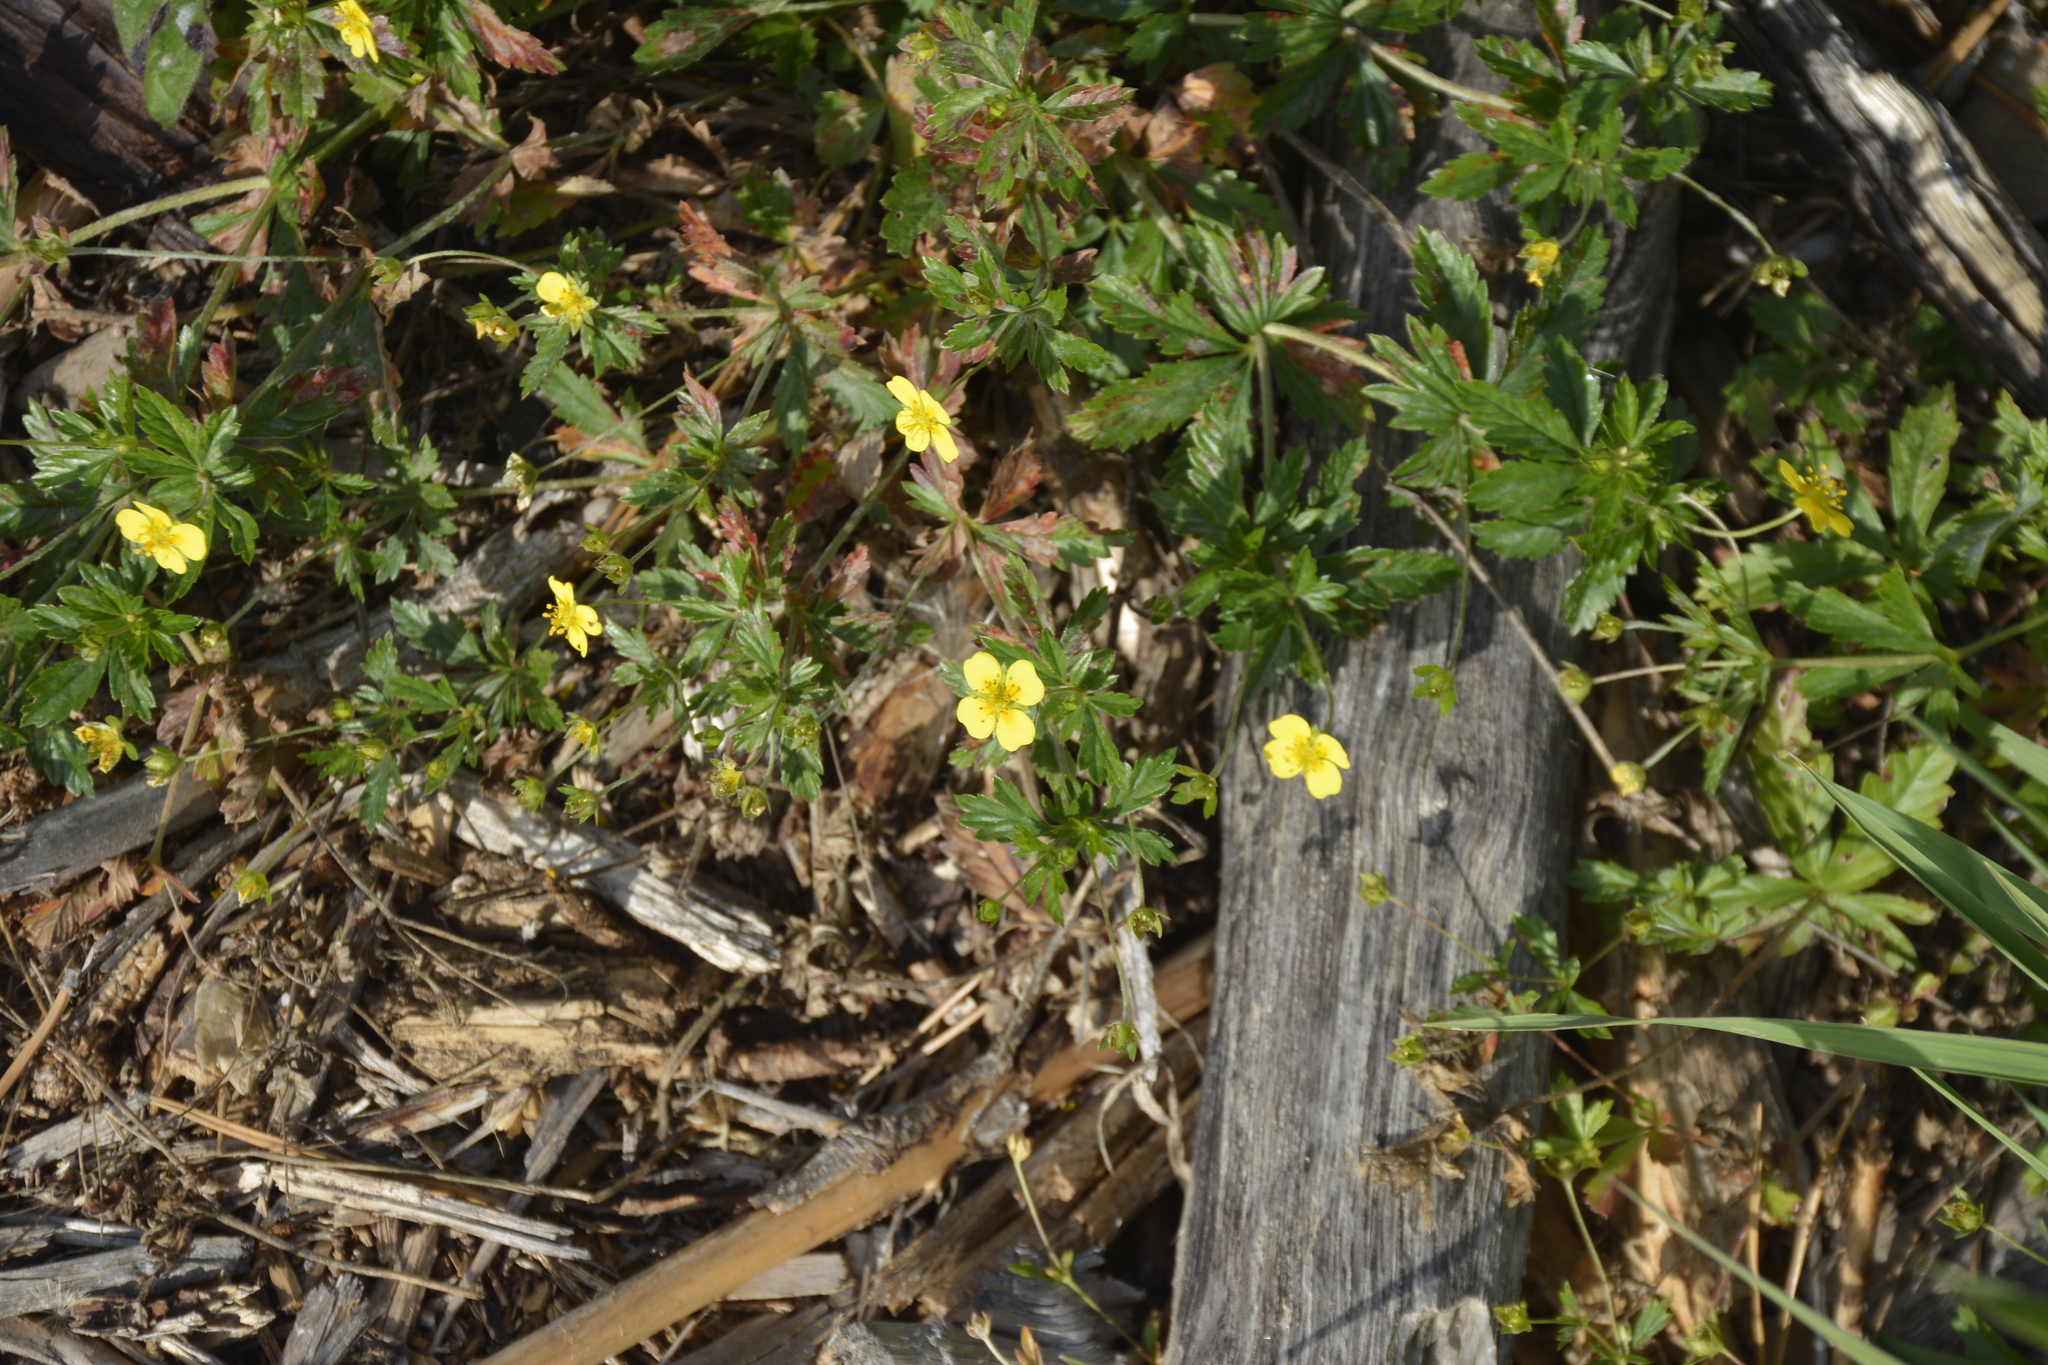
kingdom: Plantae
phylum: Tracheophyta
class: Magnoliopsida
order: Rosales
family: Rosaceae
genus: Potentilla
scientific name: Potentilla erecta
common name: Tormentil
